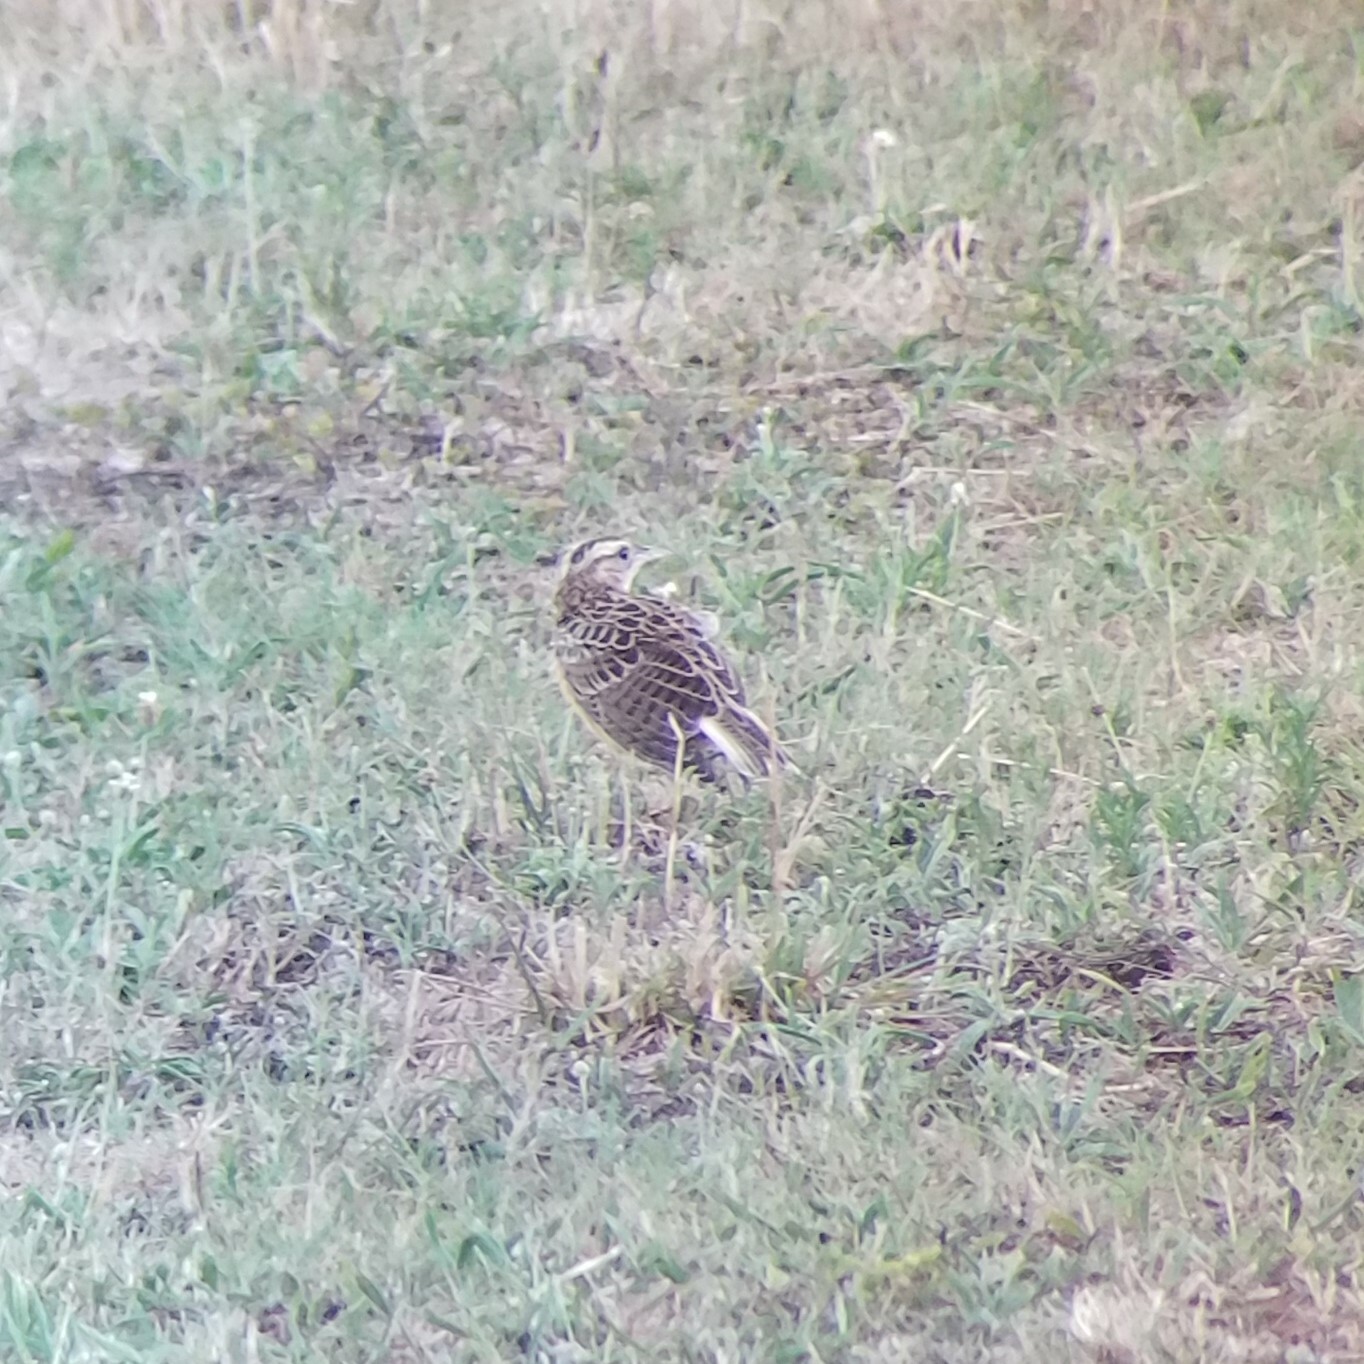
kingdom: Animalia
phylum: Chordata
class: Aves
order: Passeriformes
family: Icteridae
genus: Sturnella
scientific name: Sturnella magna
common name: Eastern meadowlark
